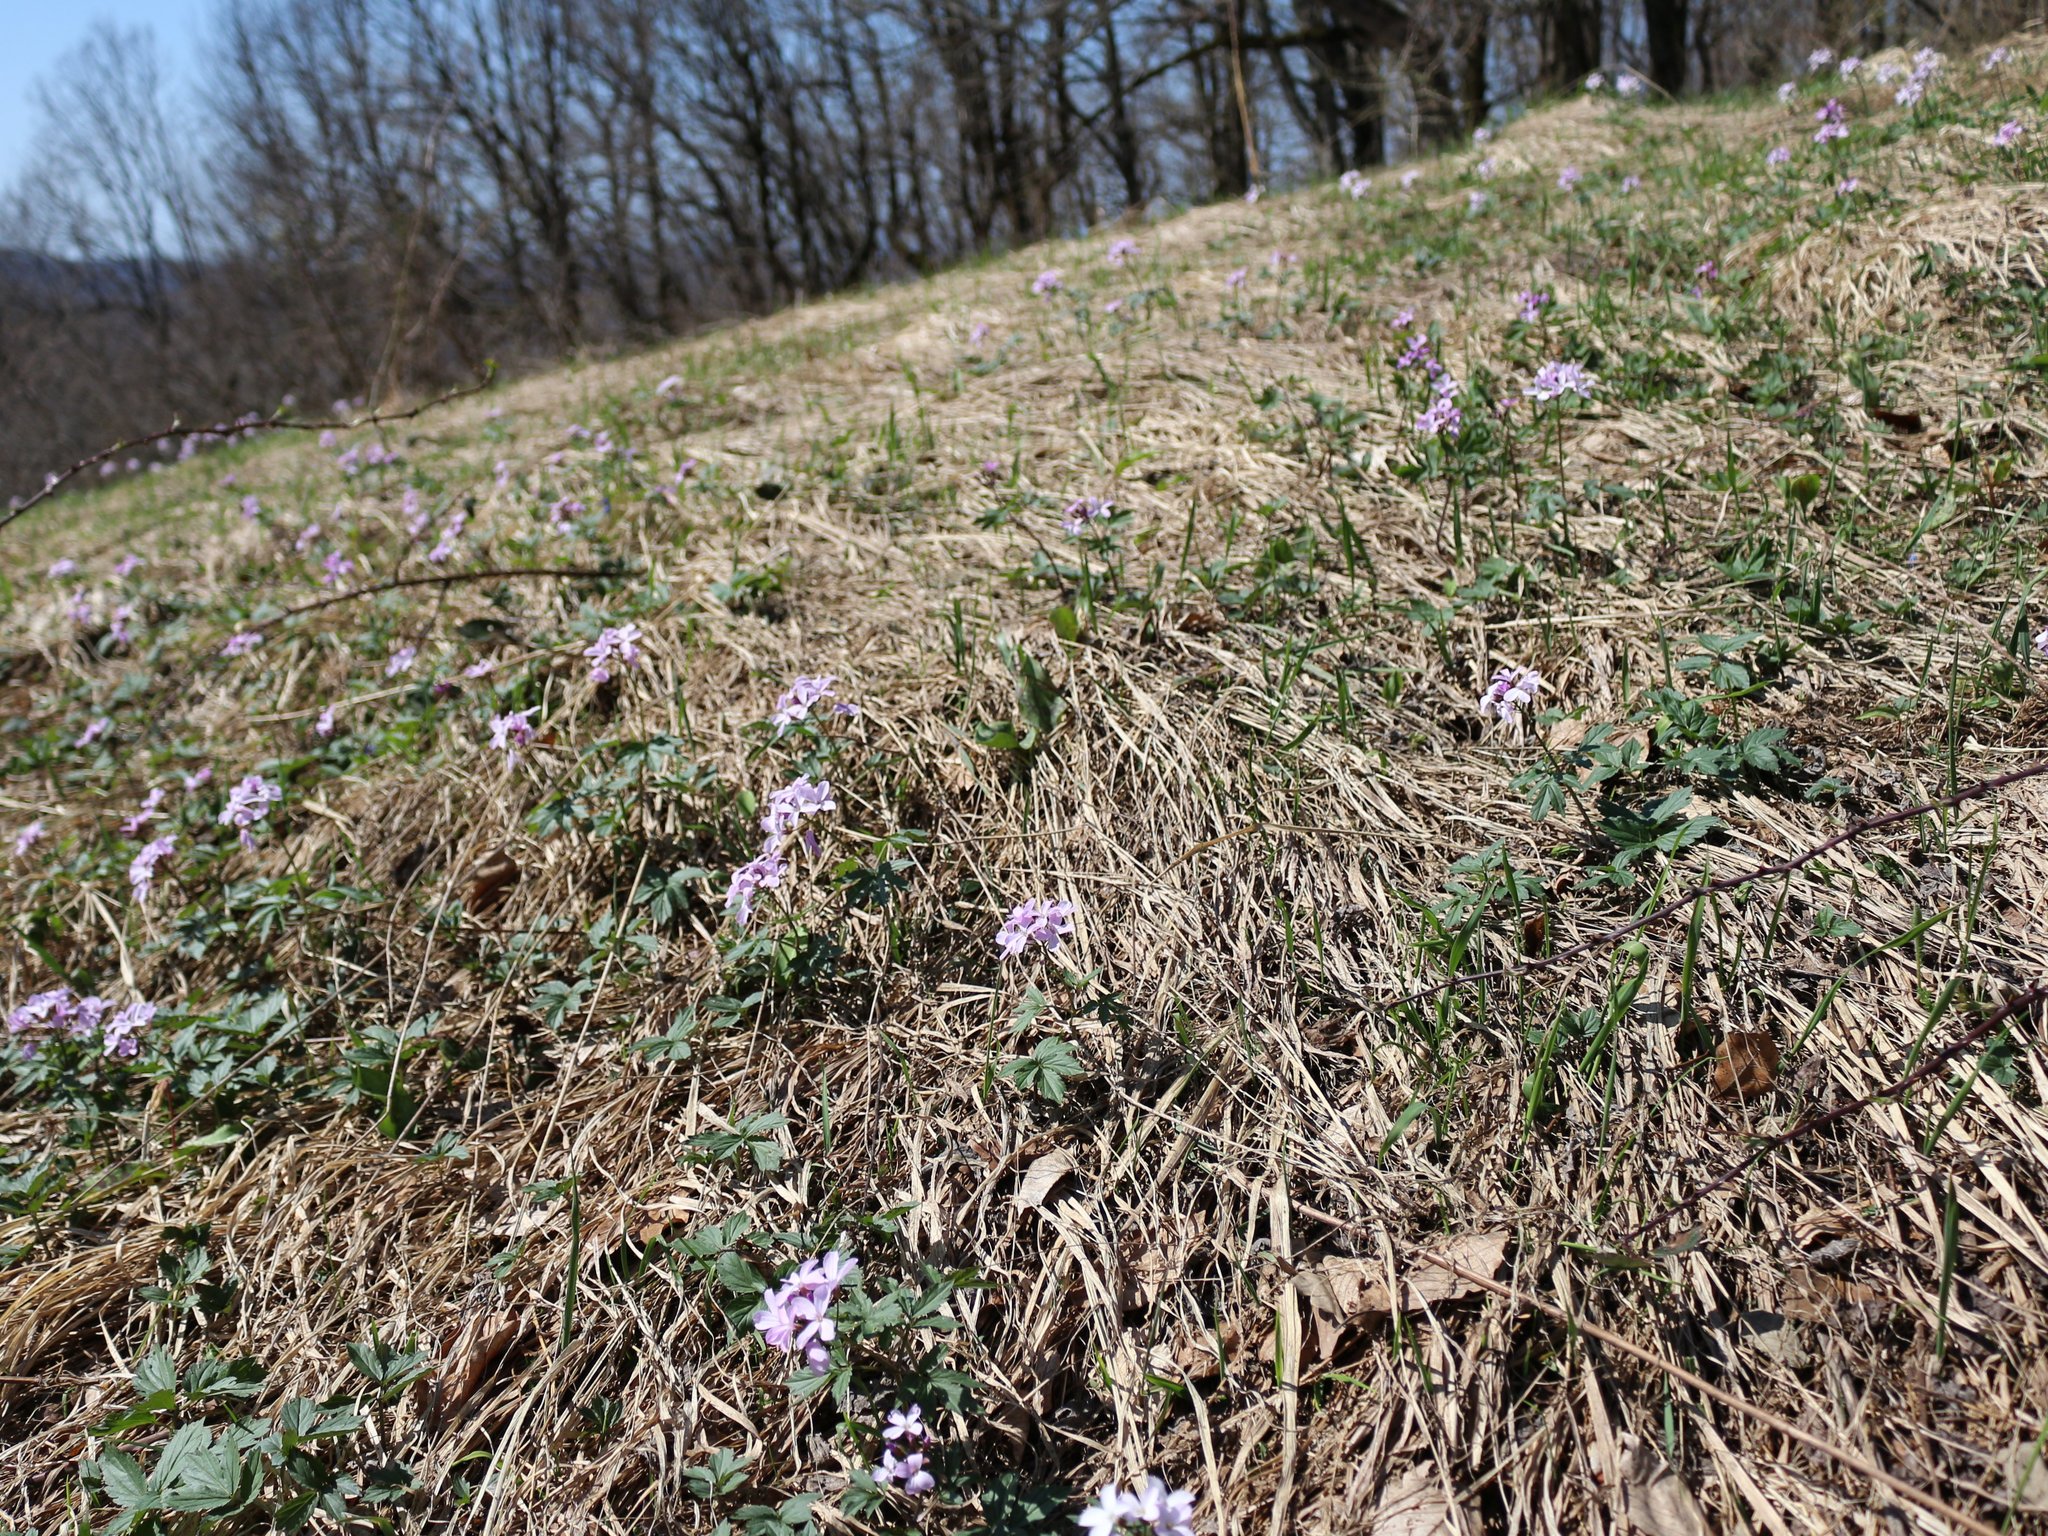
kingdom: Plantae
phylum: Tracheophyta
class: Magnoliopsida
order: Brassicales
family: Brassicaceae
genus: Cardamine
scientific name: Cardamine quinquefolia
